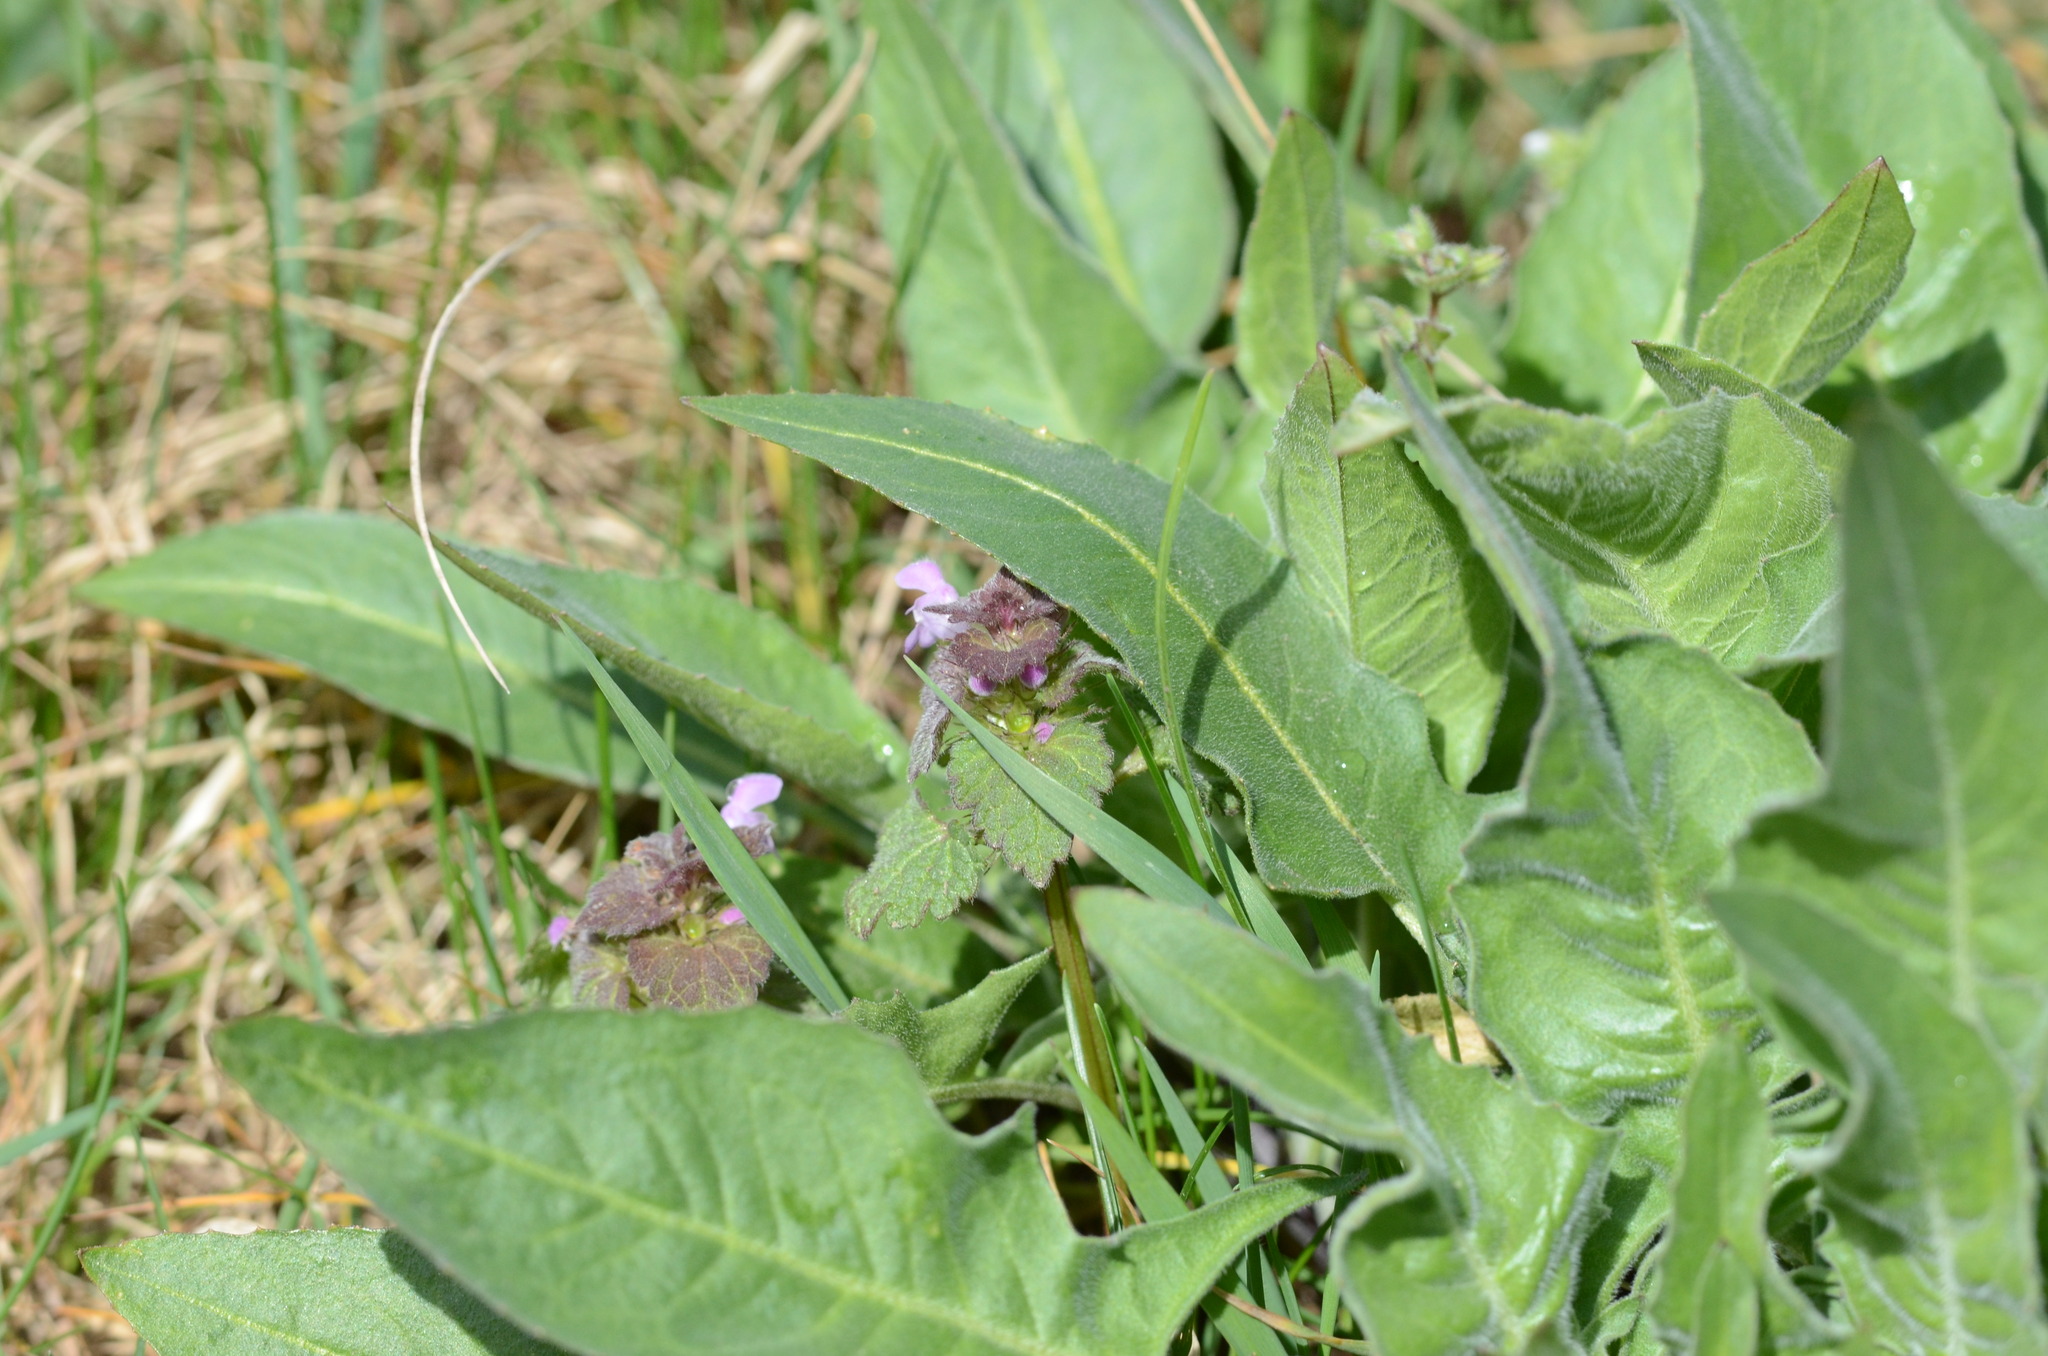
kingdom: Plantae
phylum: Tracheophyta
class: Magnoliopsida
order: Lamiales
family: Lamiaceae
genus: Lamium
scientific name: Lamium purpureum
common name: Red dead-nettle
